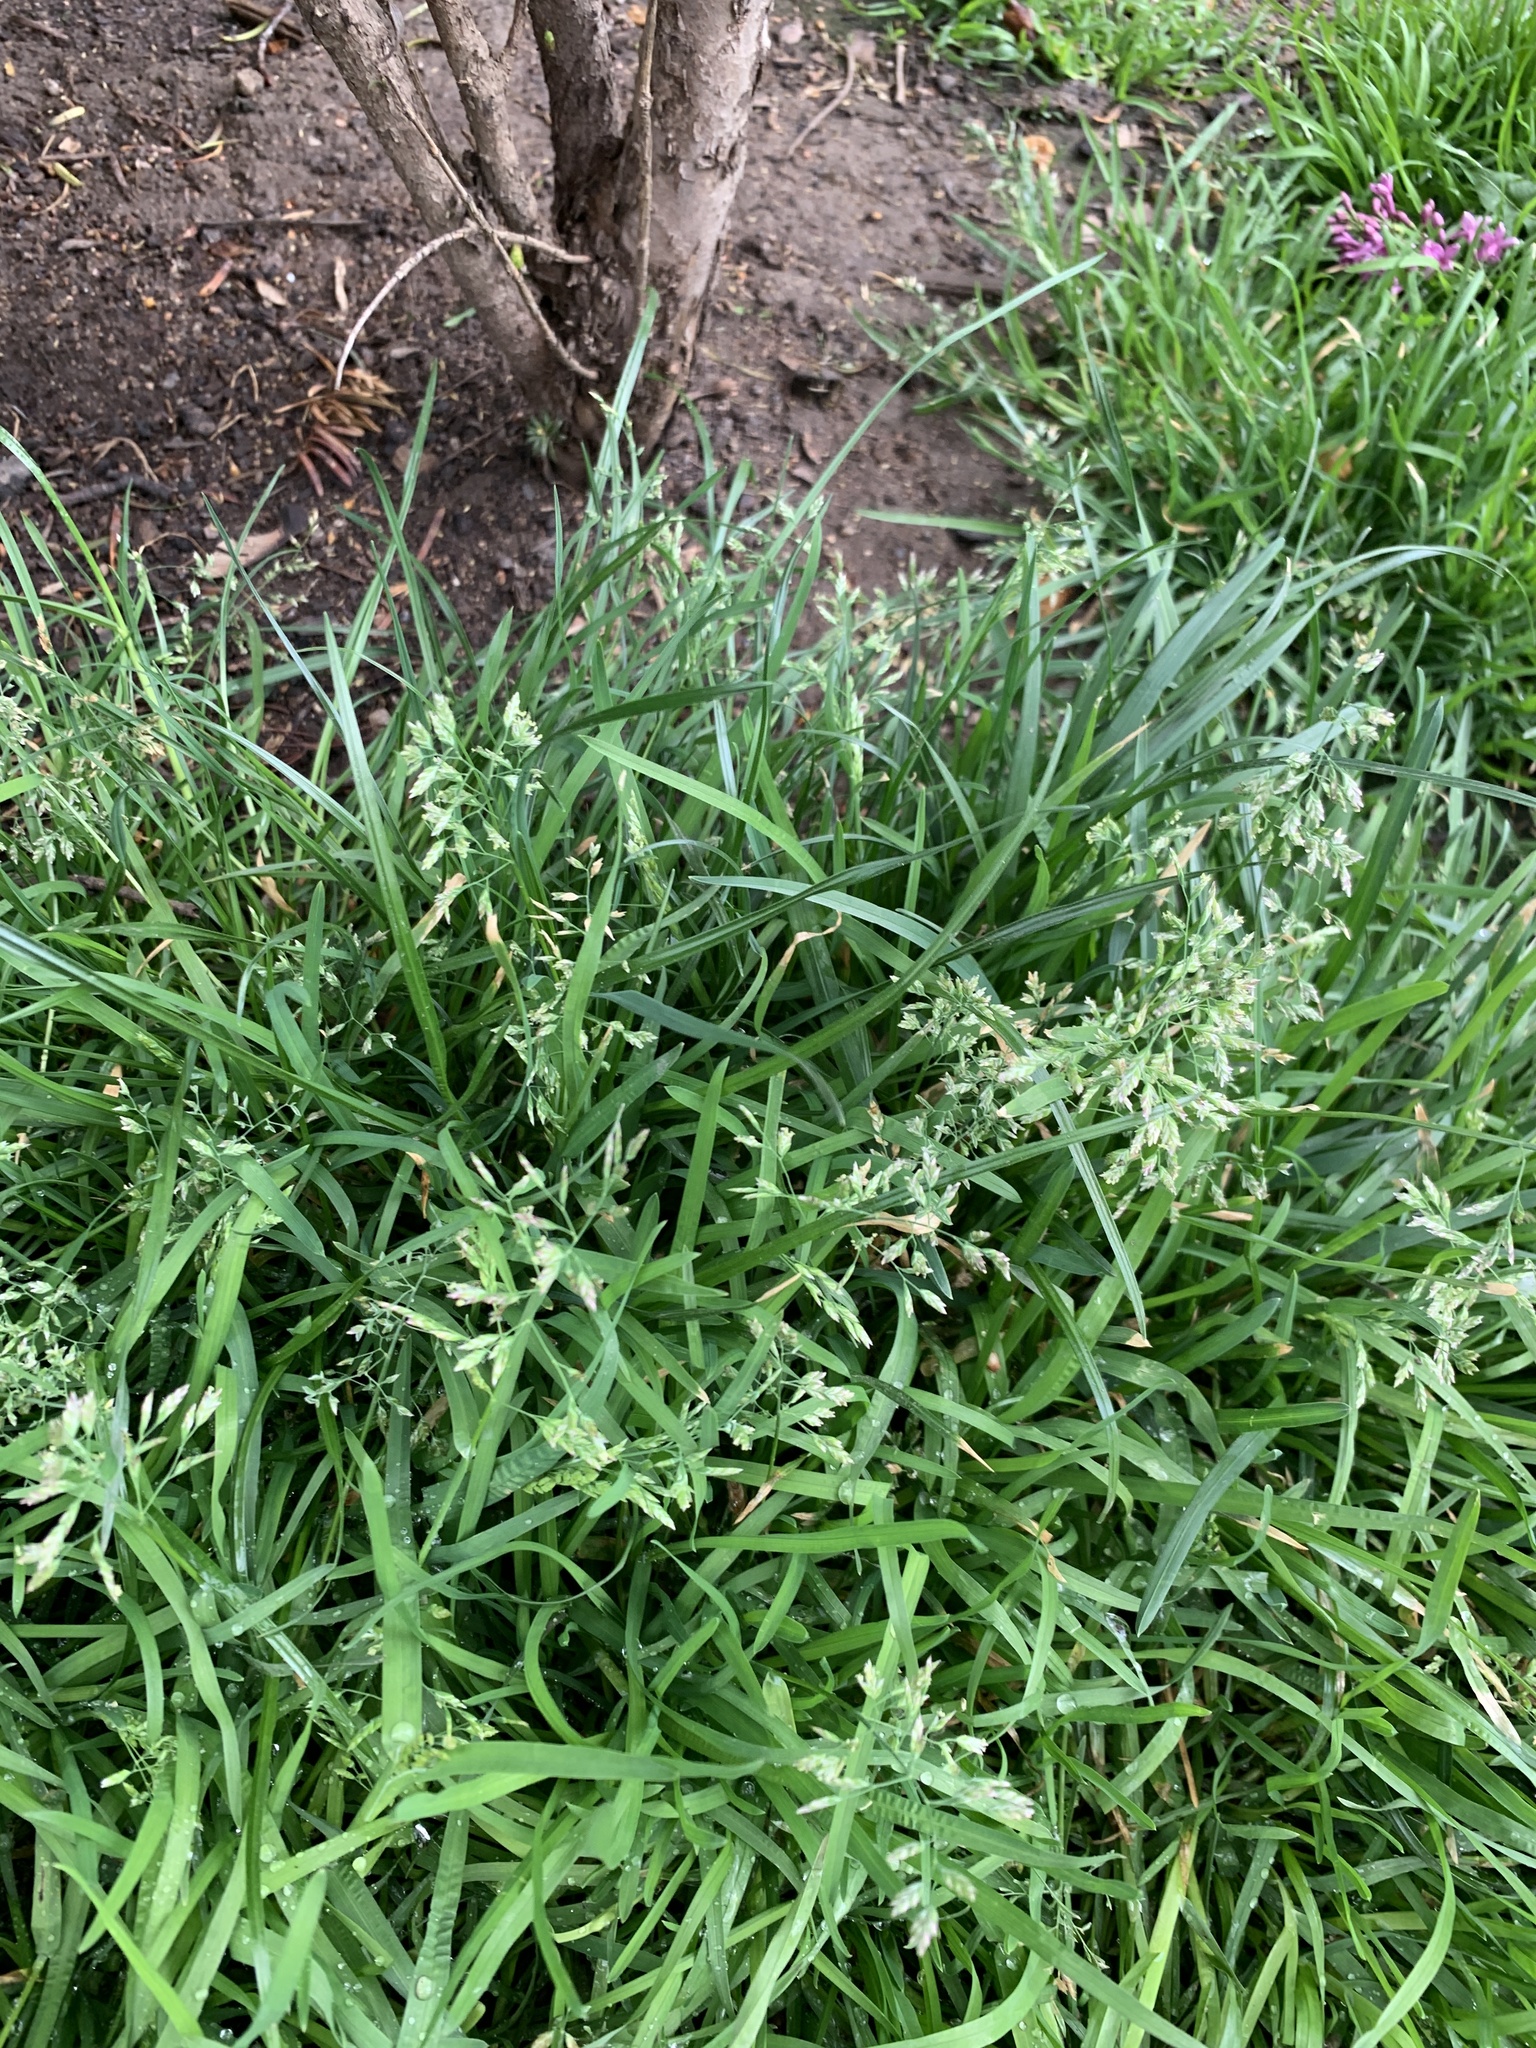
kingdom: Plantae
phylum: Tracheophyta
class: Liliopsida
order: Poales
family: Poaceae
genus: Poa
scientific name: Poa annua
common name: Annual bluegrass
